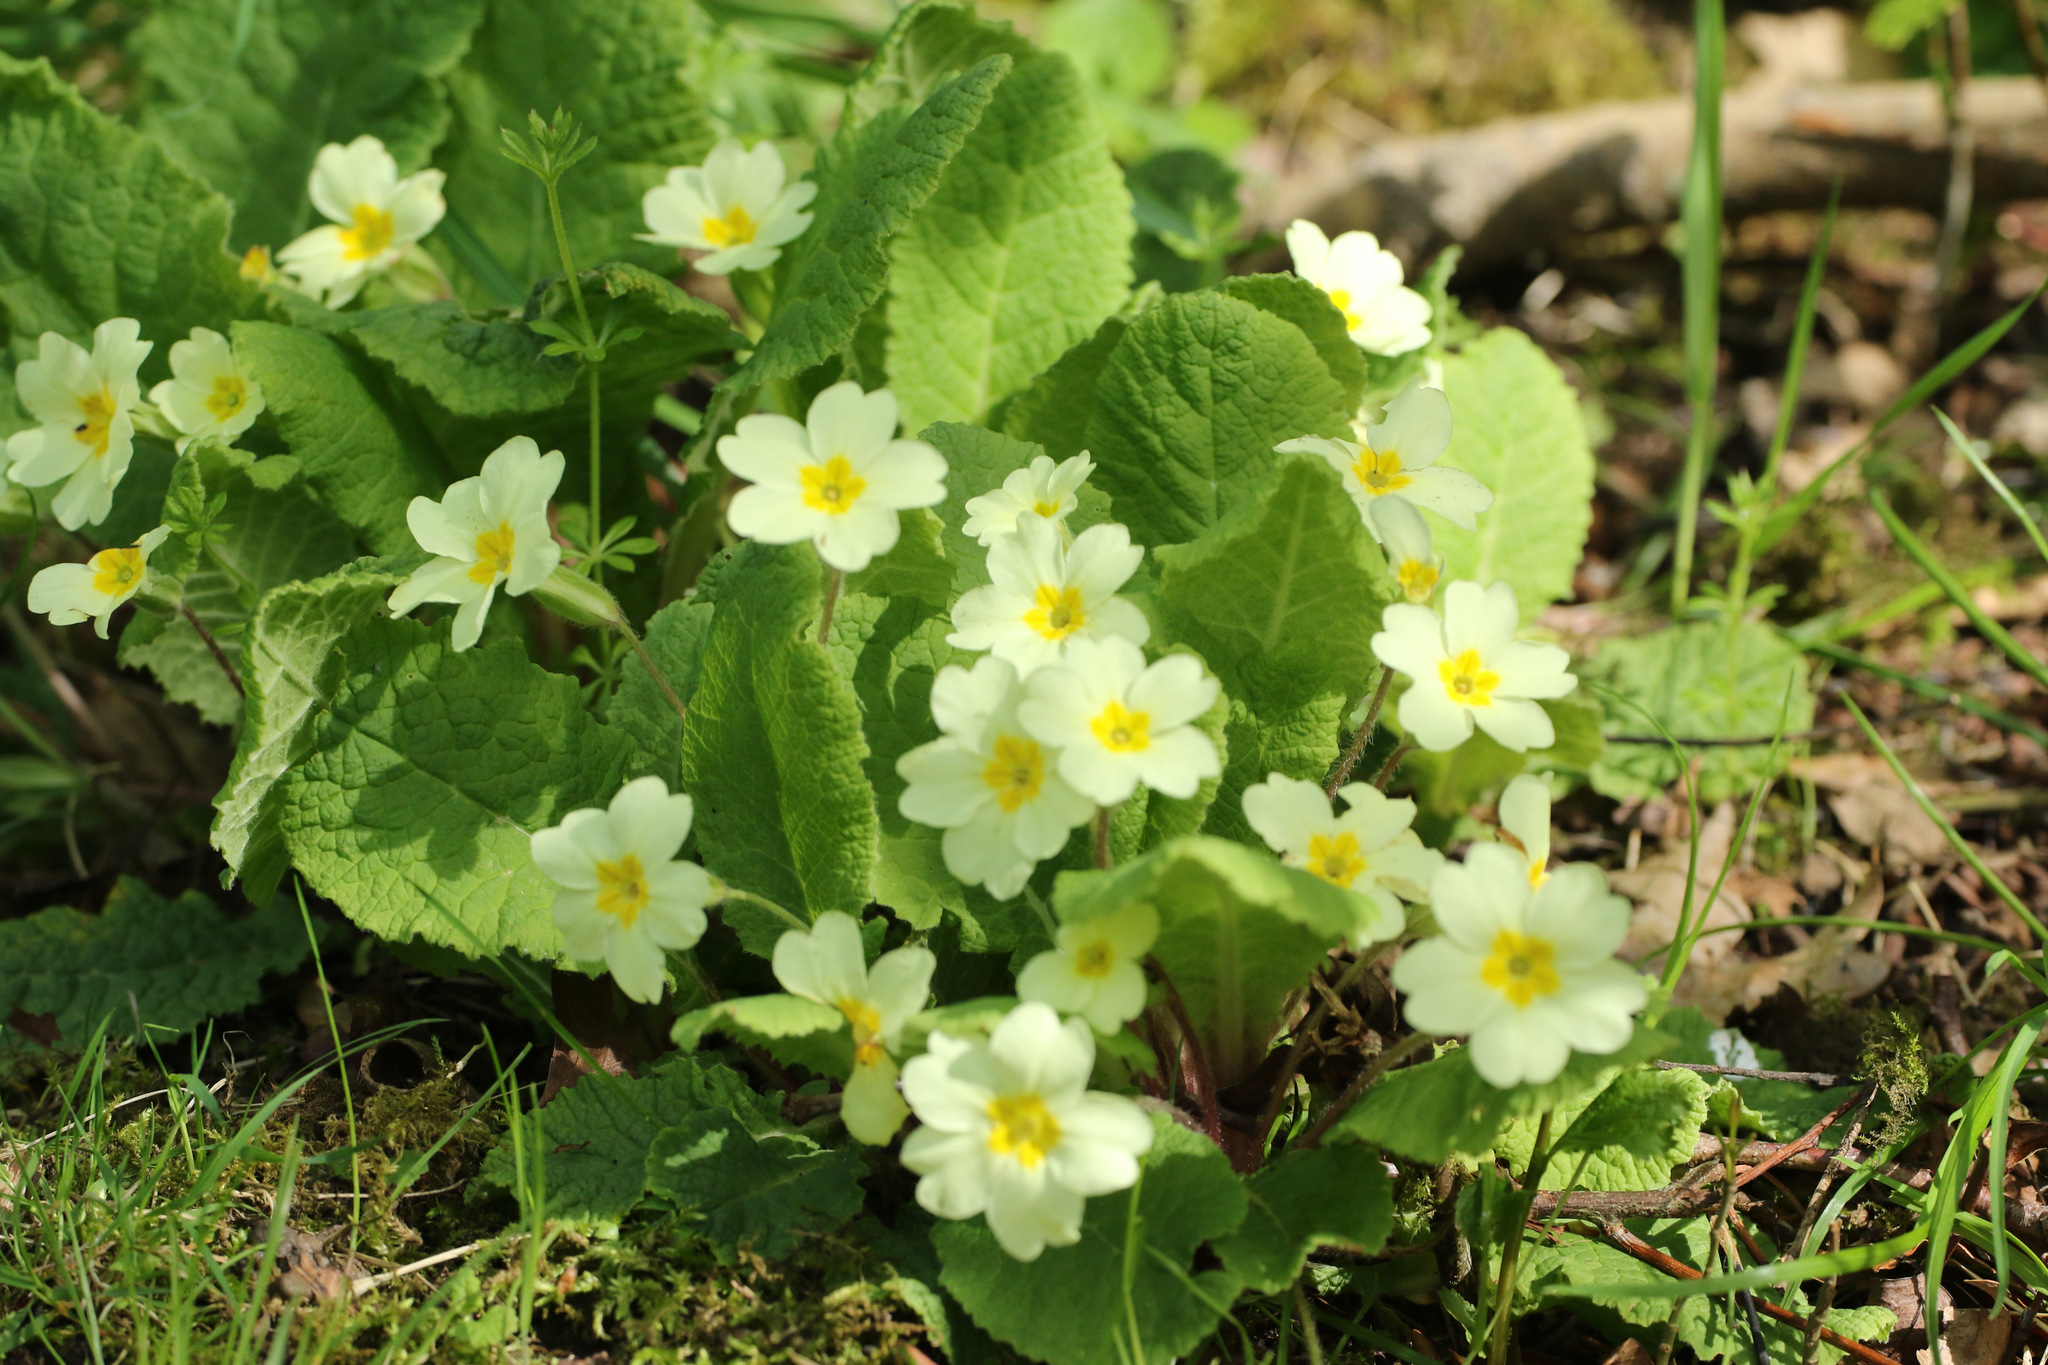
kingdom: Plantae
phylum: Tracheophyta
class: Magnoliopsida
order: Ericales
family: Primulaceae
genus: Primula
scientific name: Primula vulgaris
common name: Primrose
